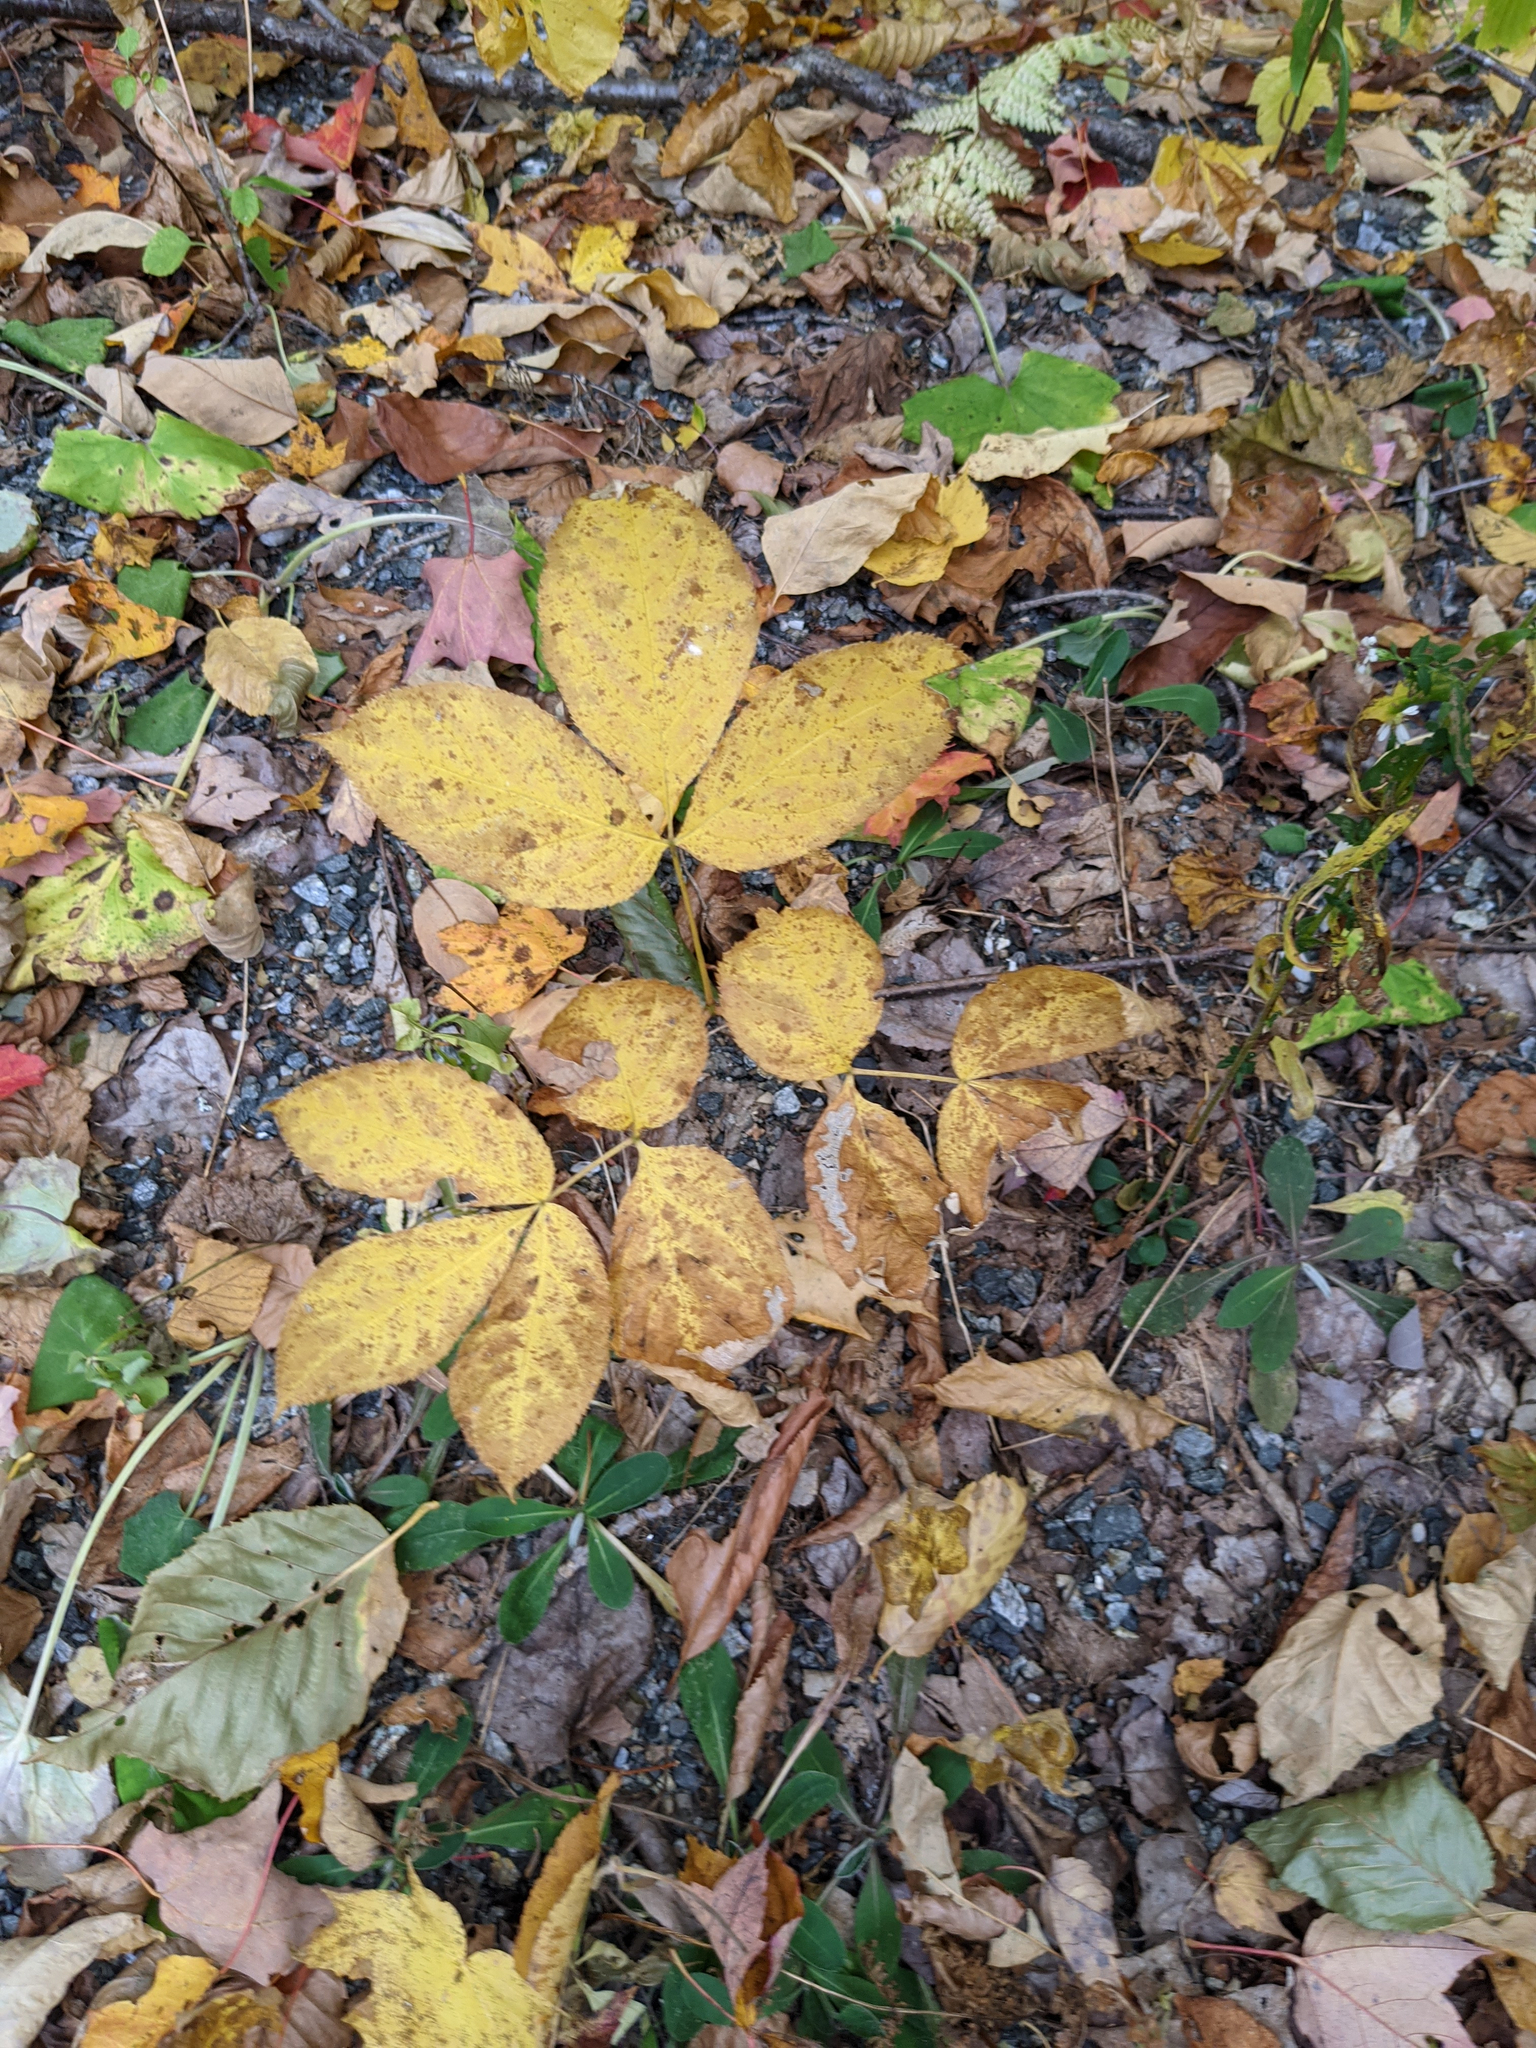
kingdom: Plantae
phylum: Tracheophyta
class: Magnoliopsida
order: Apiales
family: Araliaceae
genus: Aralia
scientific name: Aralia nudicaulis
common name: Wild sarsaparilla
